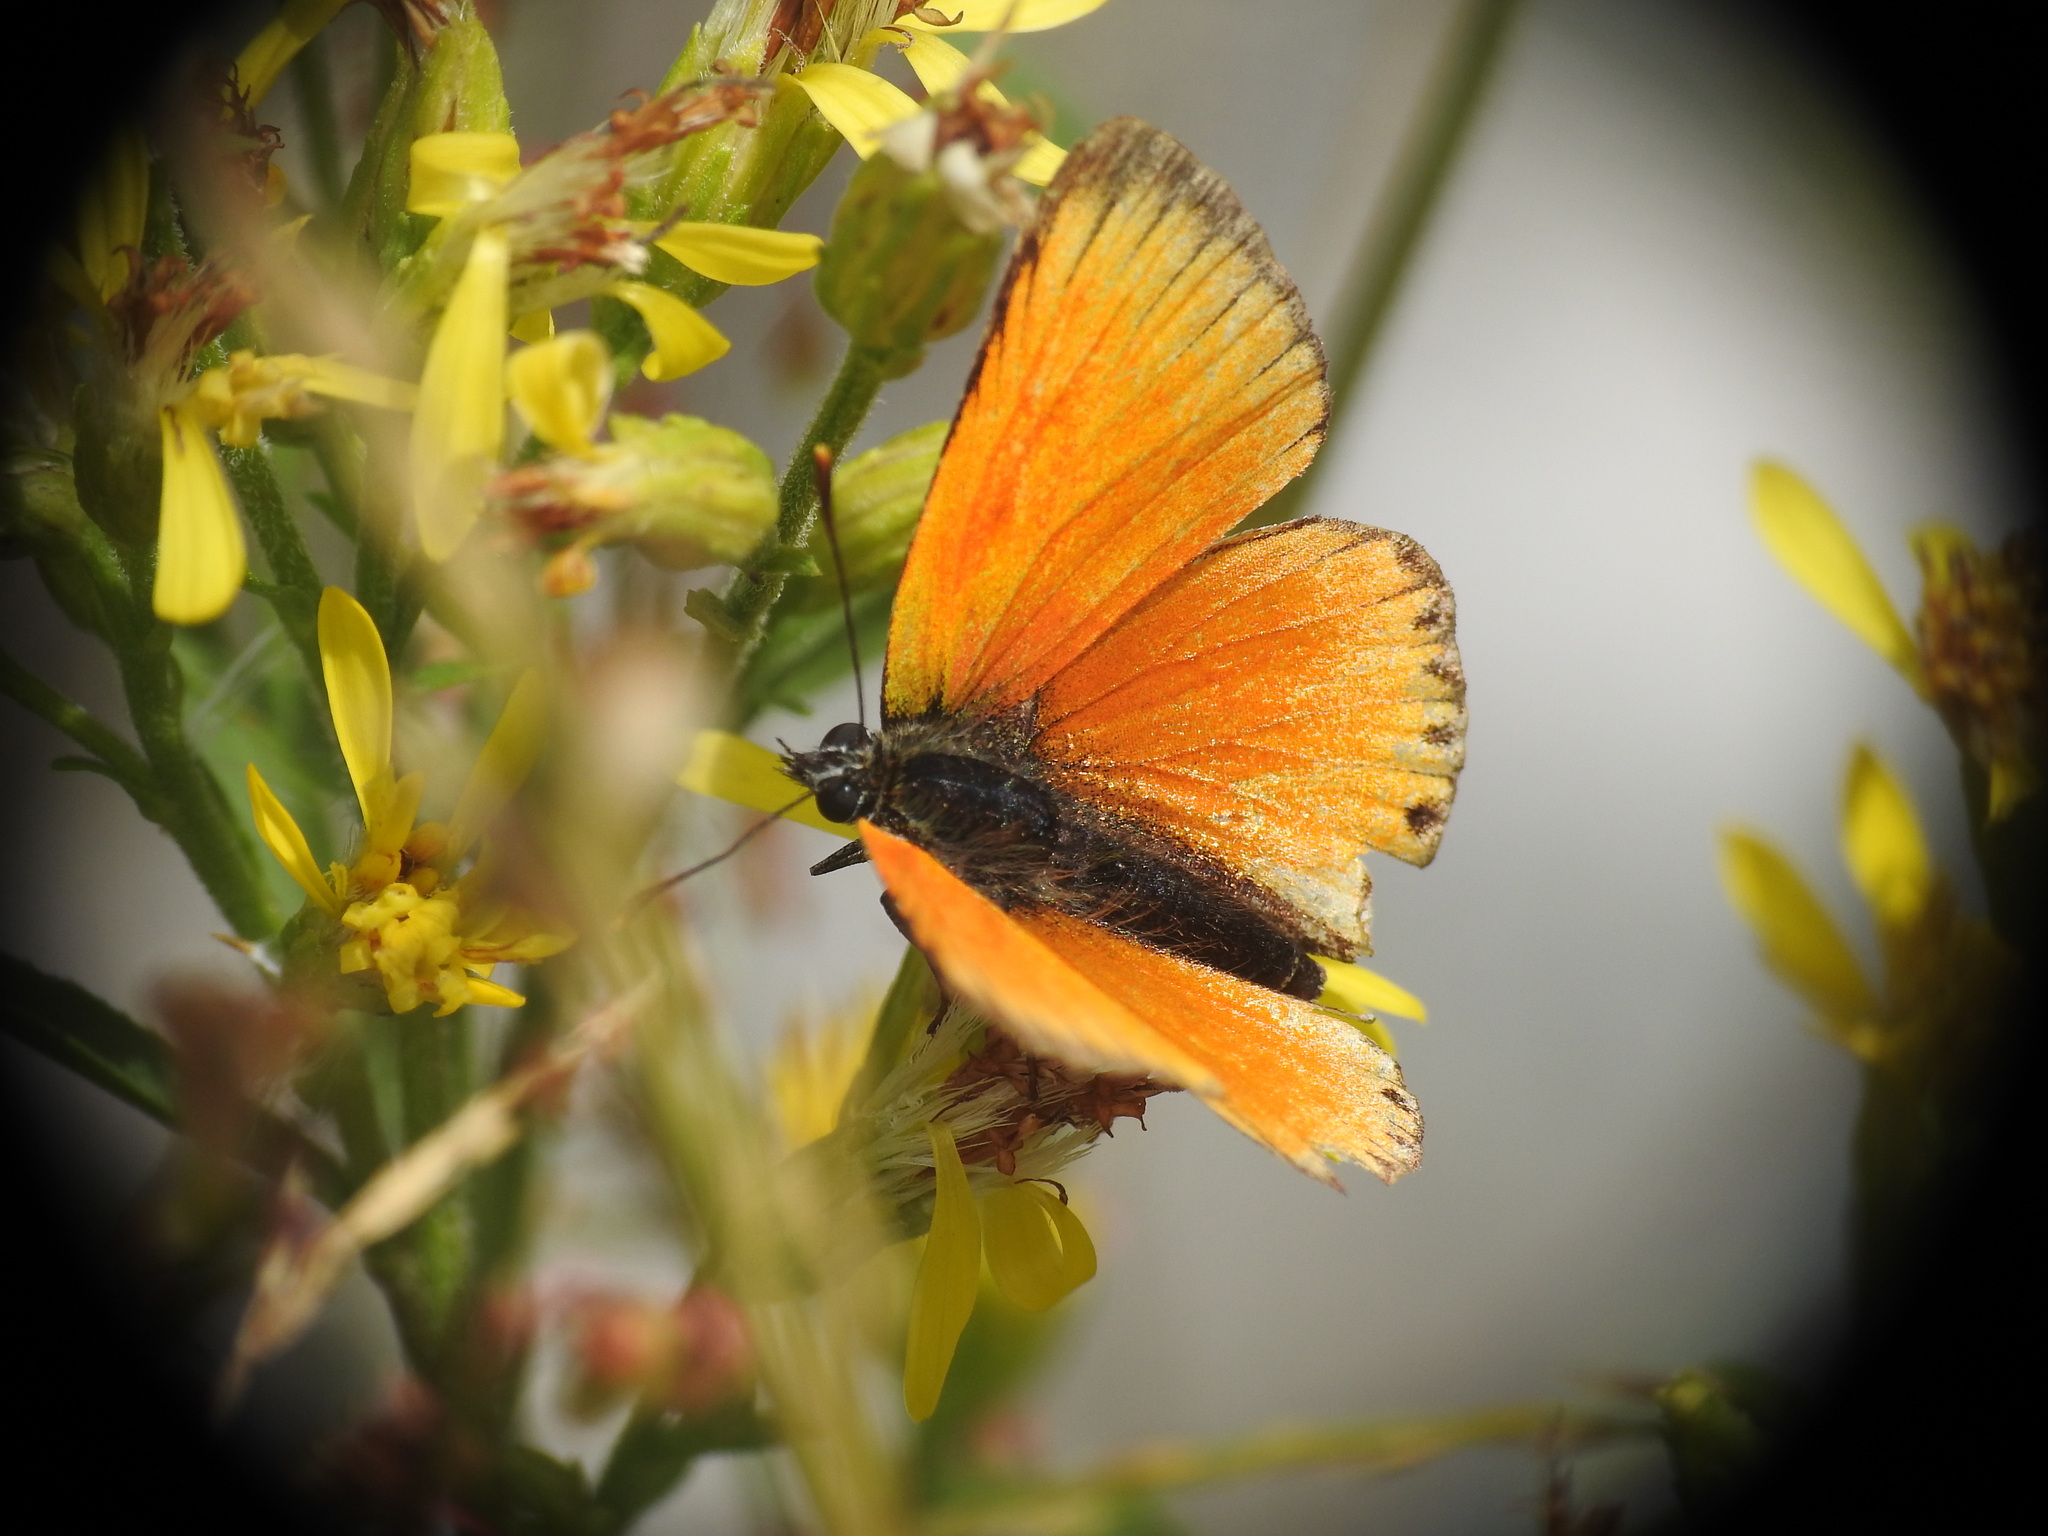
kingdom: Animalia
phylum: Arthropoda
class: Insecta
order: Lepidoptera
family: Lycaenidae
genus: Lycaena
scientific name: Lycaena virgaureae
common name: Scarce copper
